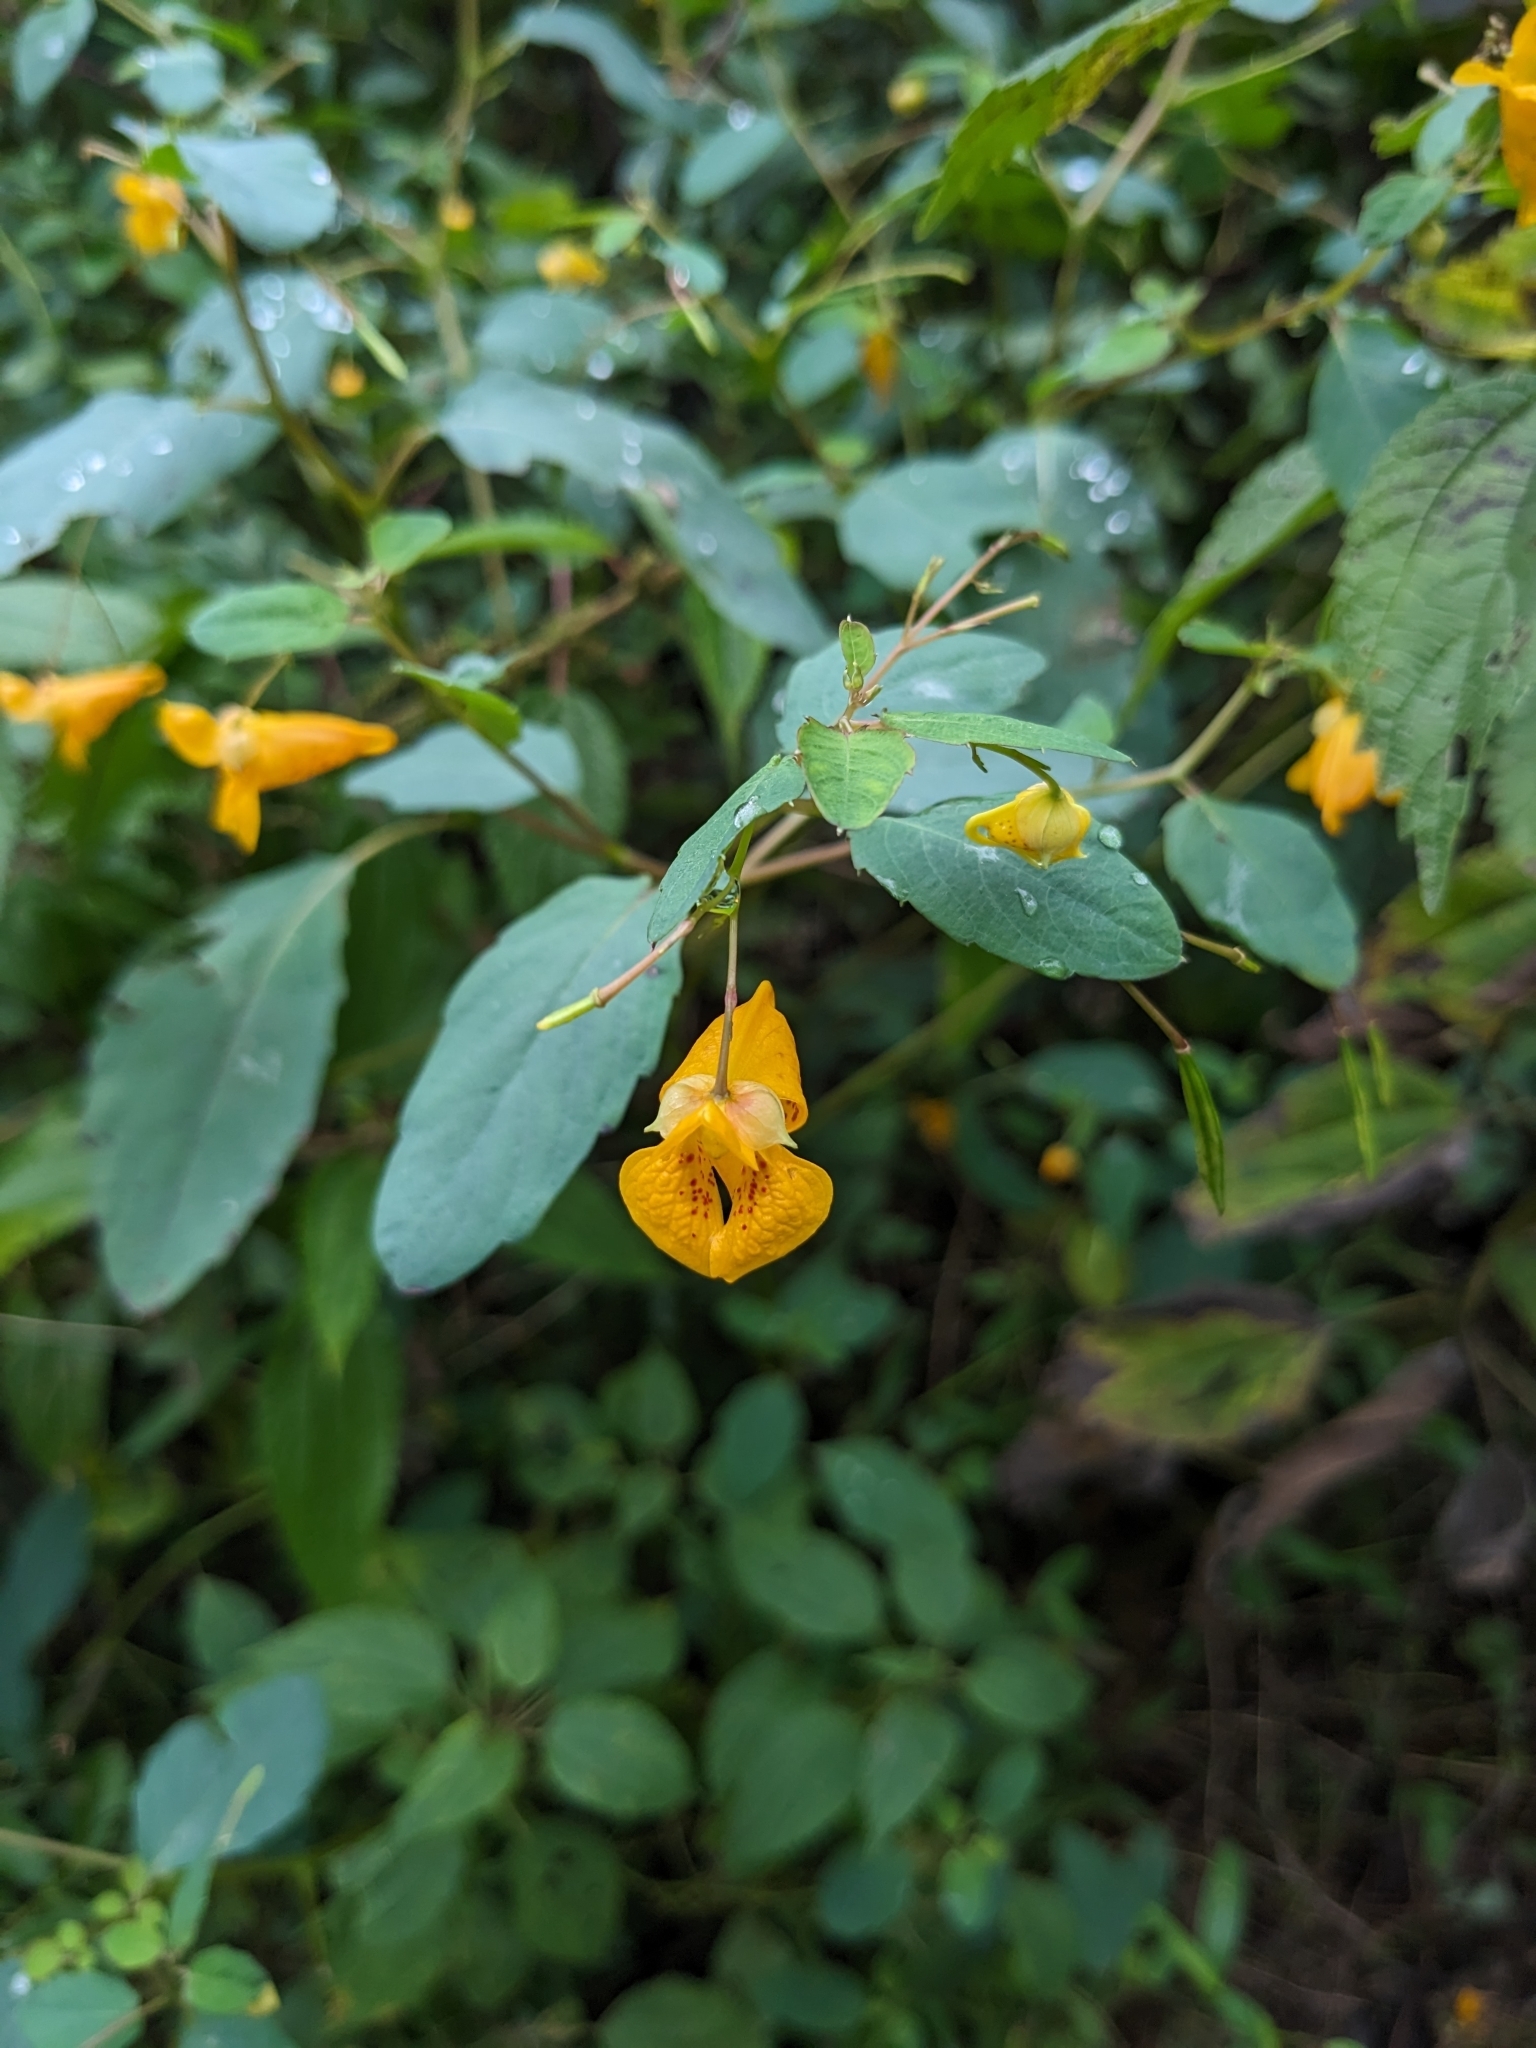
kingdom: Plantae
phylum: Tracheophyta
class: Magnoliopsida
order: Ericales
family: Balsaminaceae
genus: Impatiens
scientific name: Impatiens capensis
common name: Orange balsam
